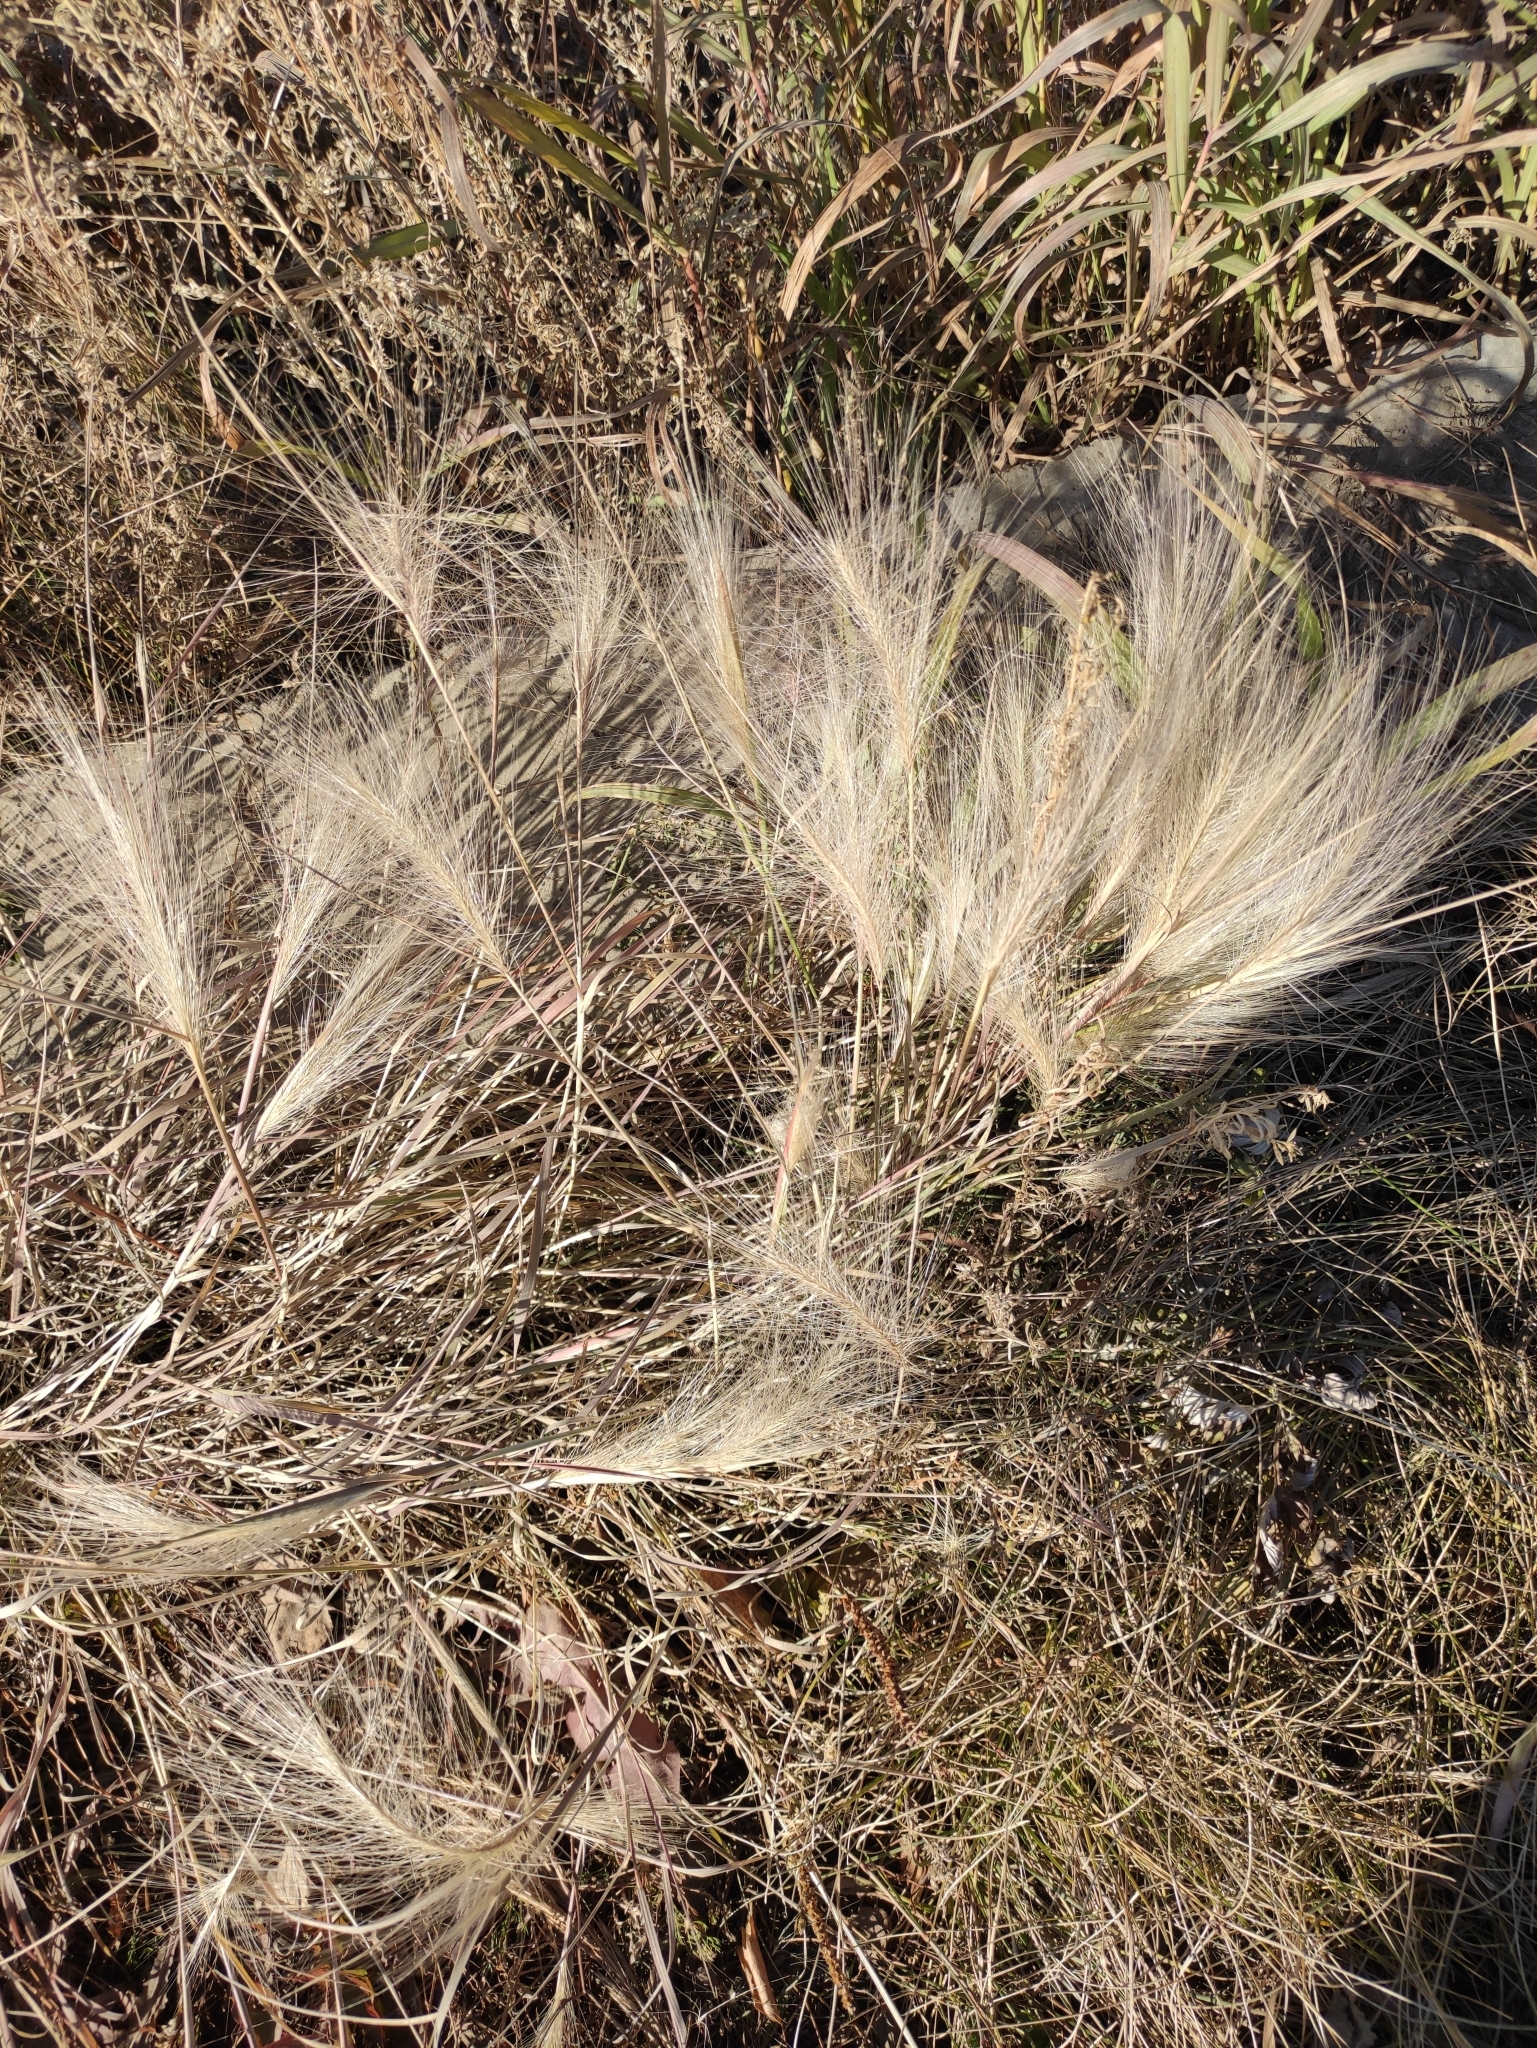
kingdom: Plantae
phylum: Tracheophyta
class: Liliopsida
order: Poales
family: Poaceae
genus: Hordeum
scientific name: Hordeum jubatum
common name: Foxtail barley
